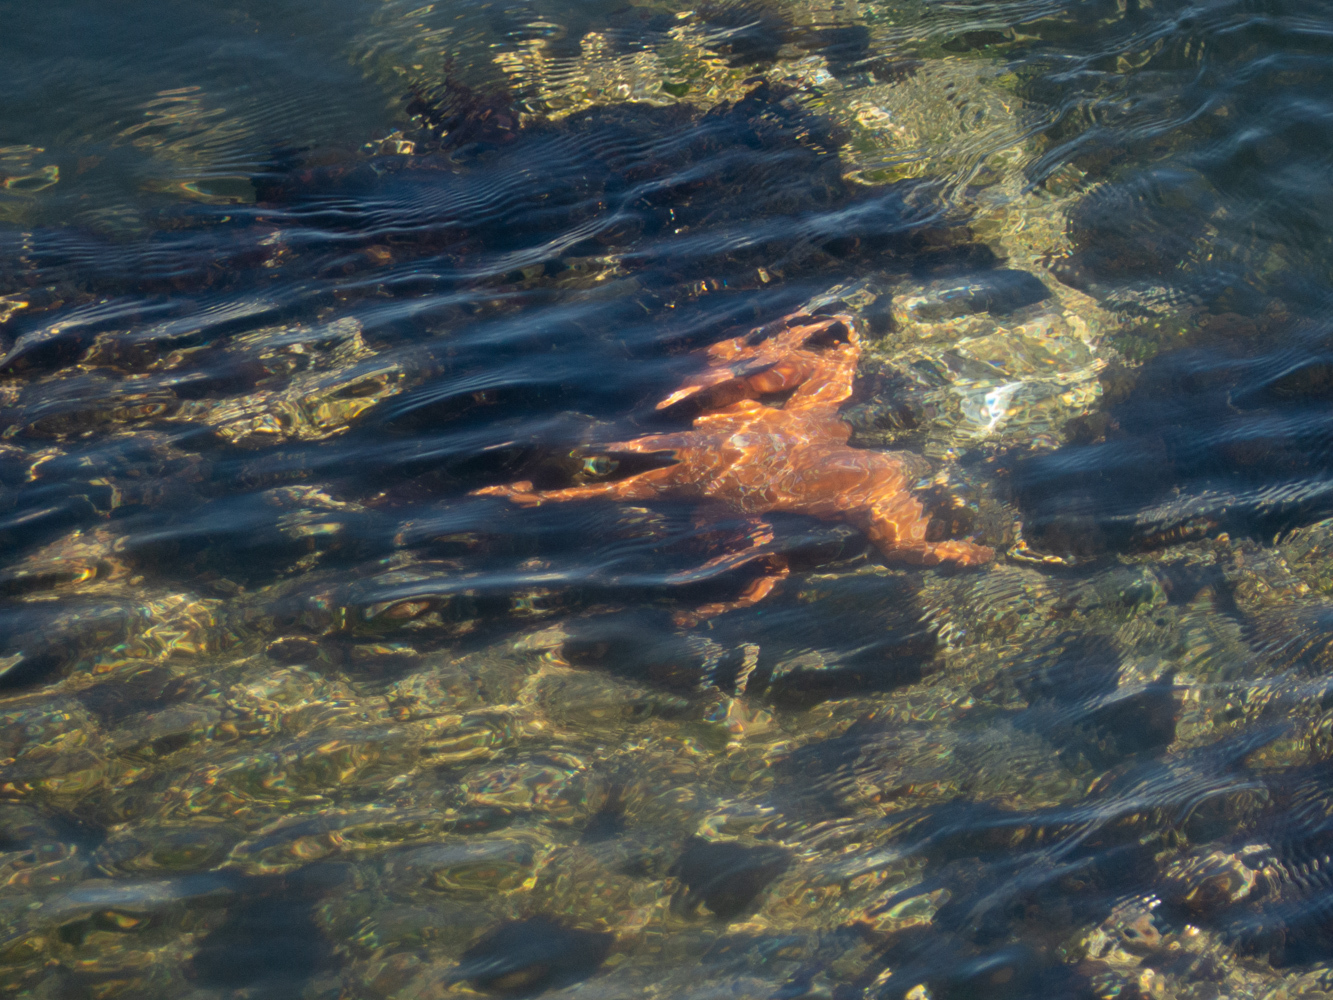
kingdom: Animalia
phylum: Echinodermata
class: Asteroidea
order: Forcipulatida
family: Asteriidae
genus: Pisaster
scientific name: Pisaster ochraceus
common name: Ochre stars
